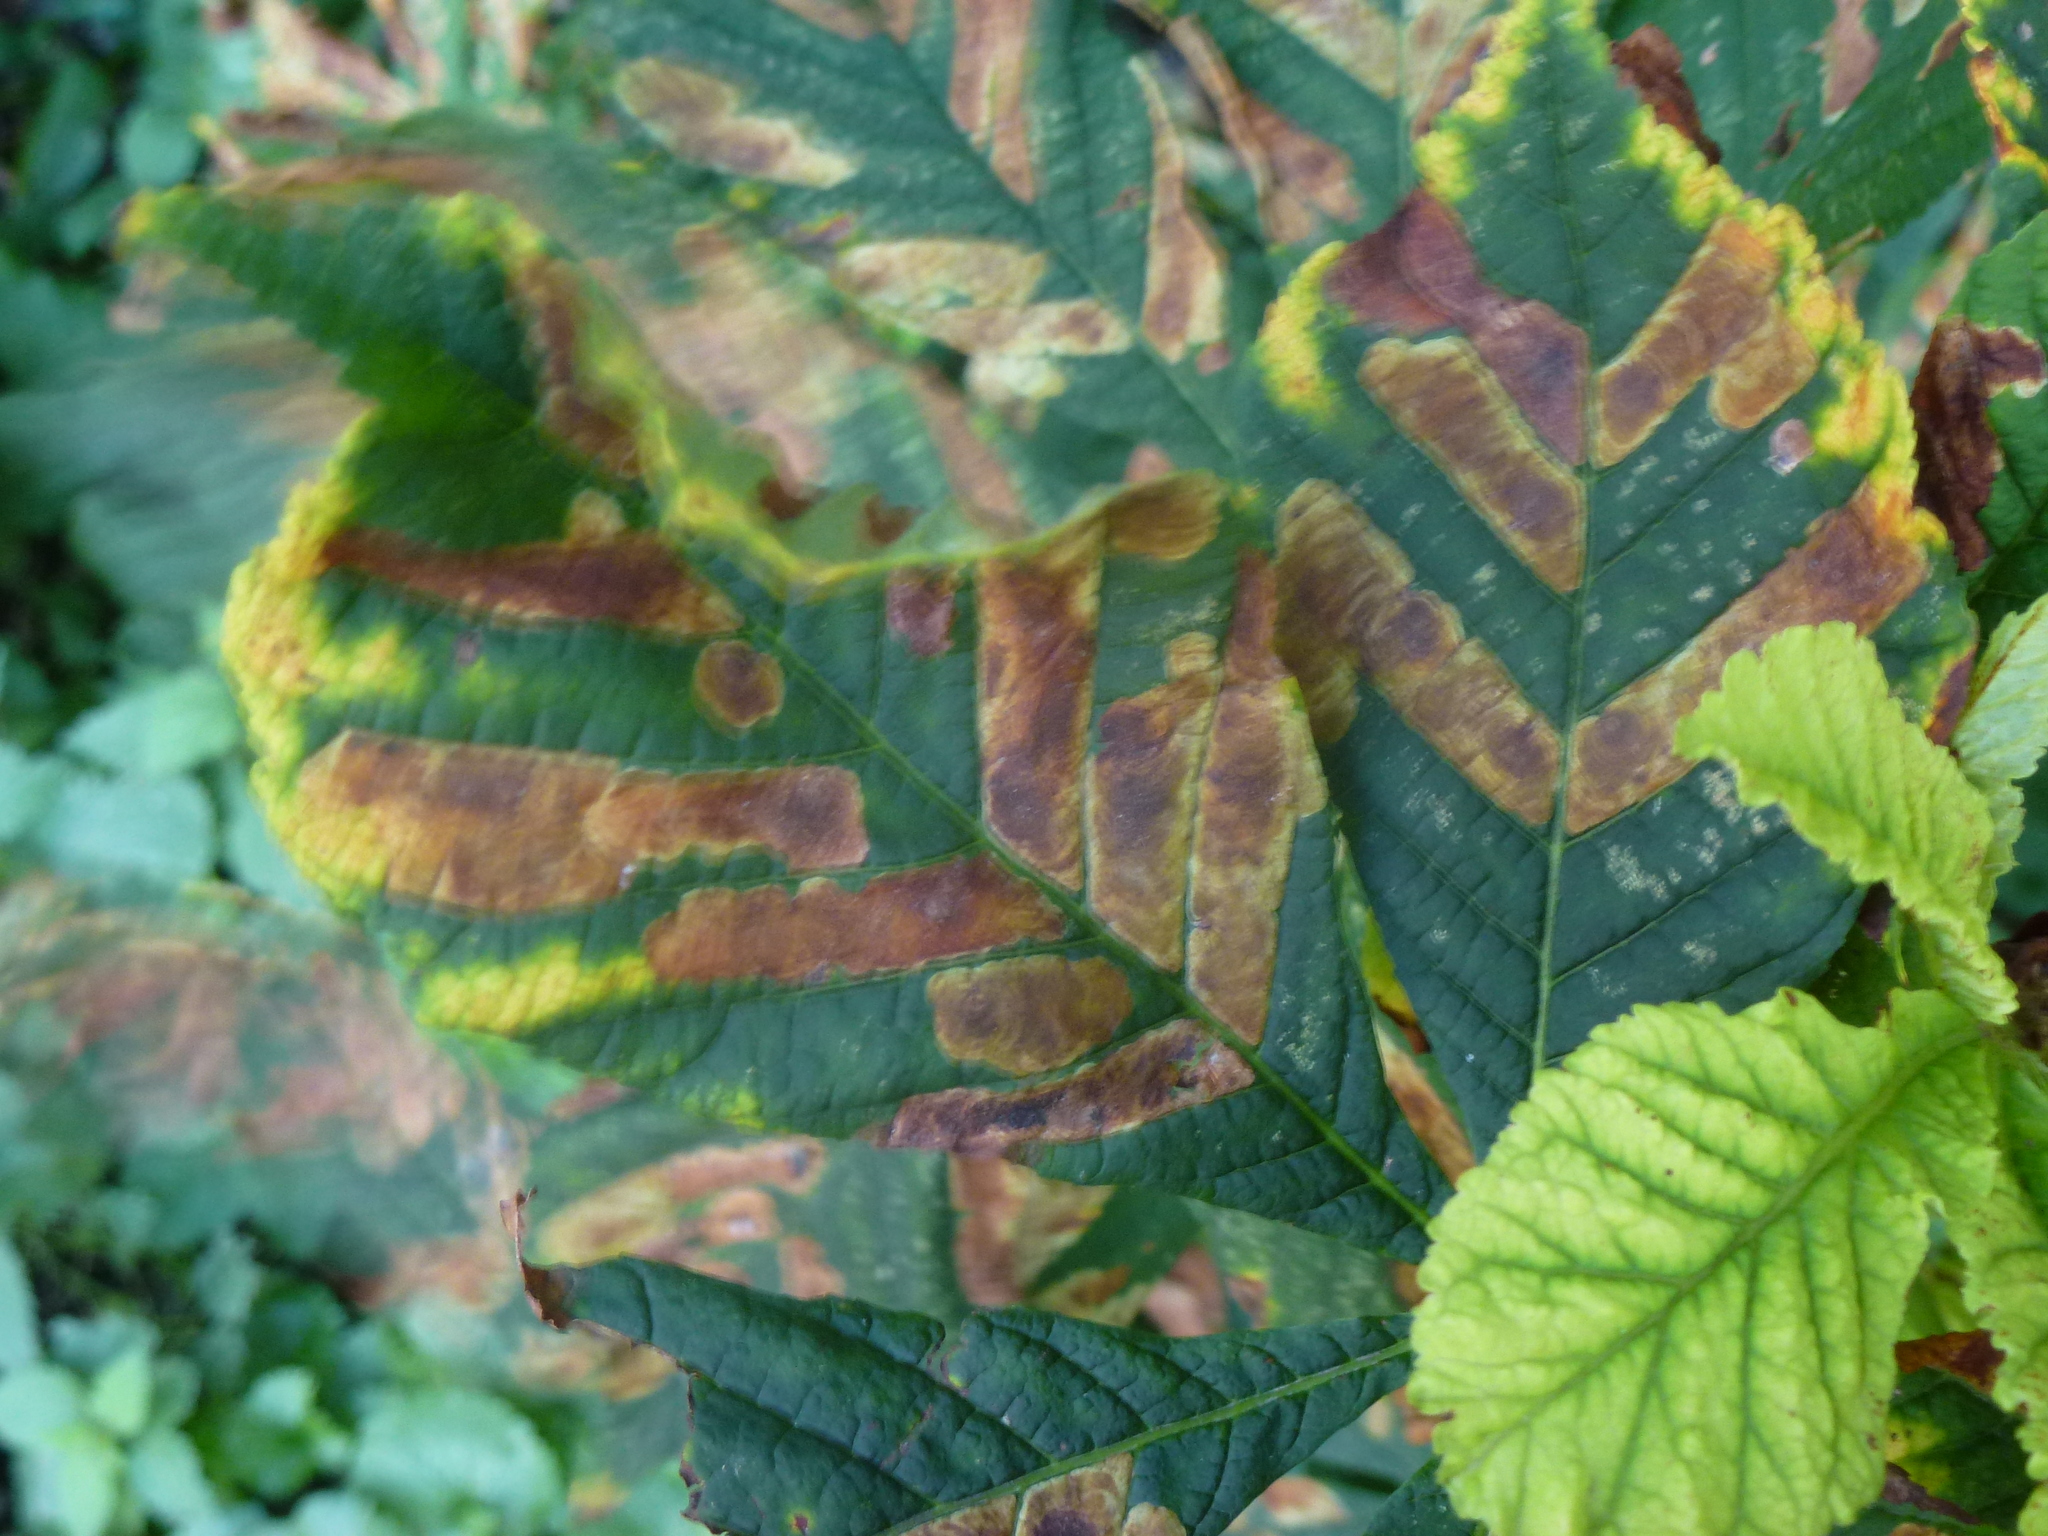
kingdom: Animalia
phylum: Arthropoda
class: Insecta
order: Lepidoptera
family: Gracillariidae
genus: Cameraria
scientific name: Cameraria ohridella
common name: Horse-chestnut leaf-miner
